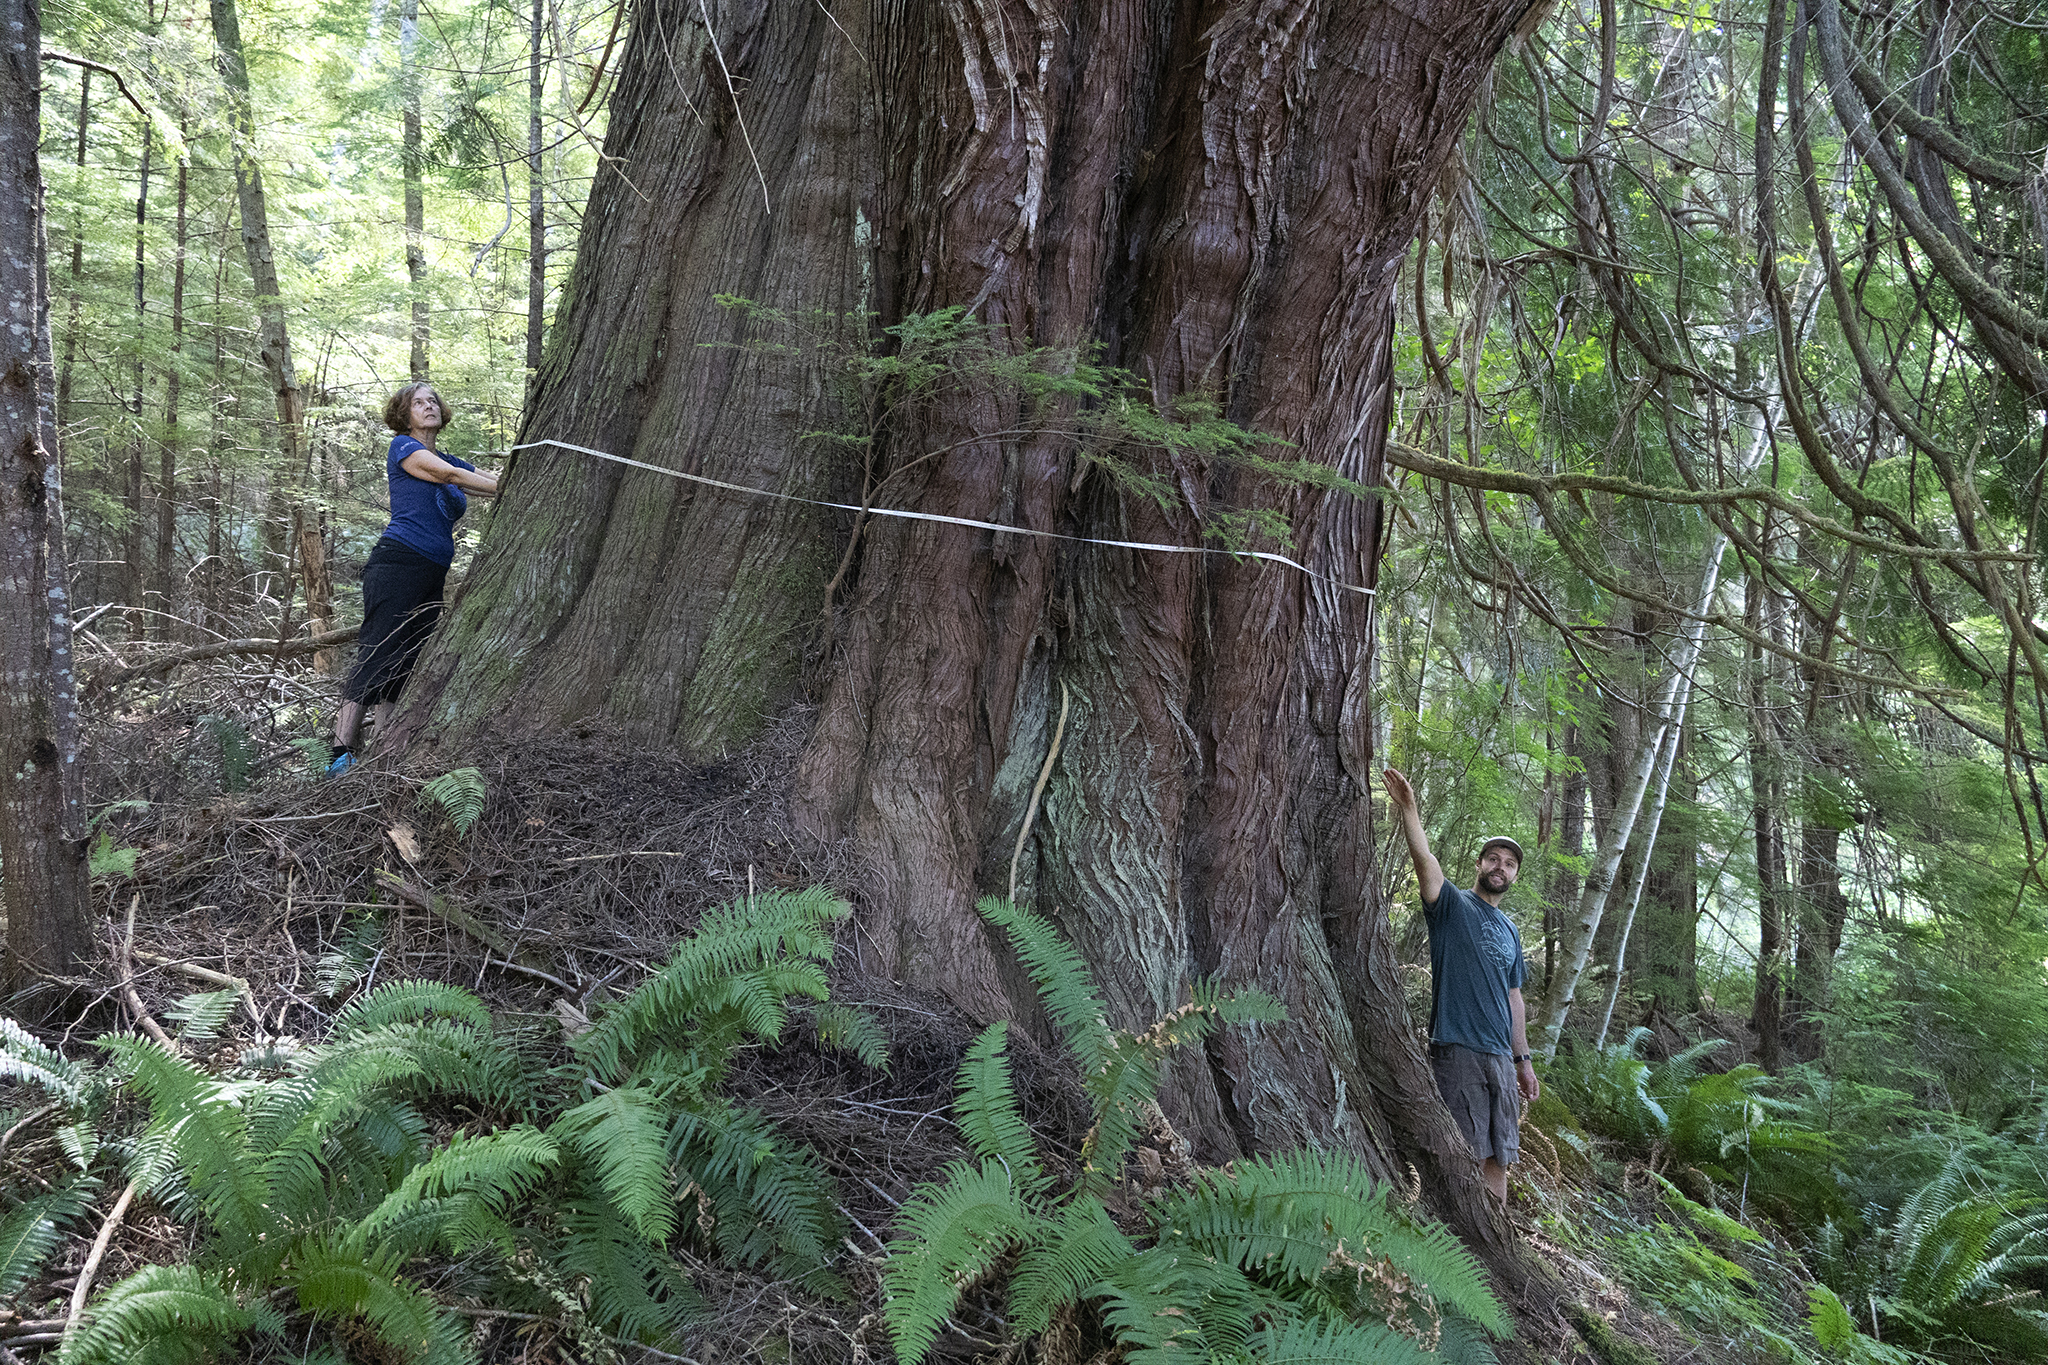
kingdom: Plantae
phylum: Tracheophyta
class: Pinopsida
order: Pinales
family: Cupressaceae
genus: Thuja
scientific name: Thuja plicata
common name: Western red-cedar
